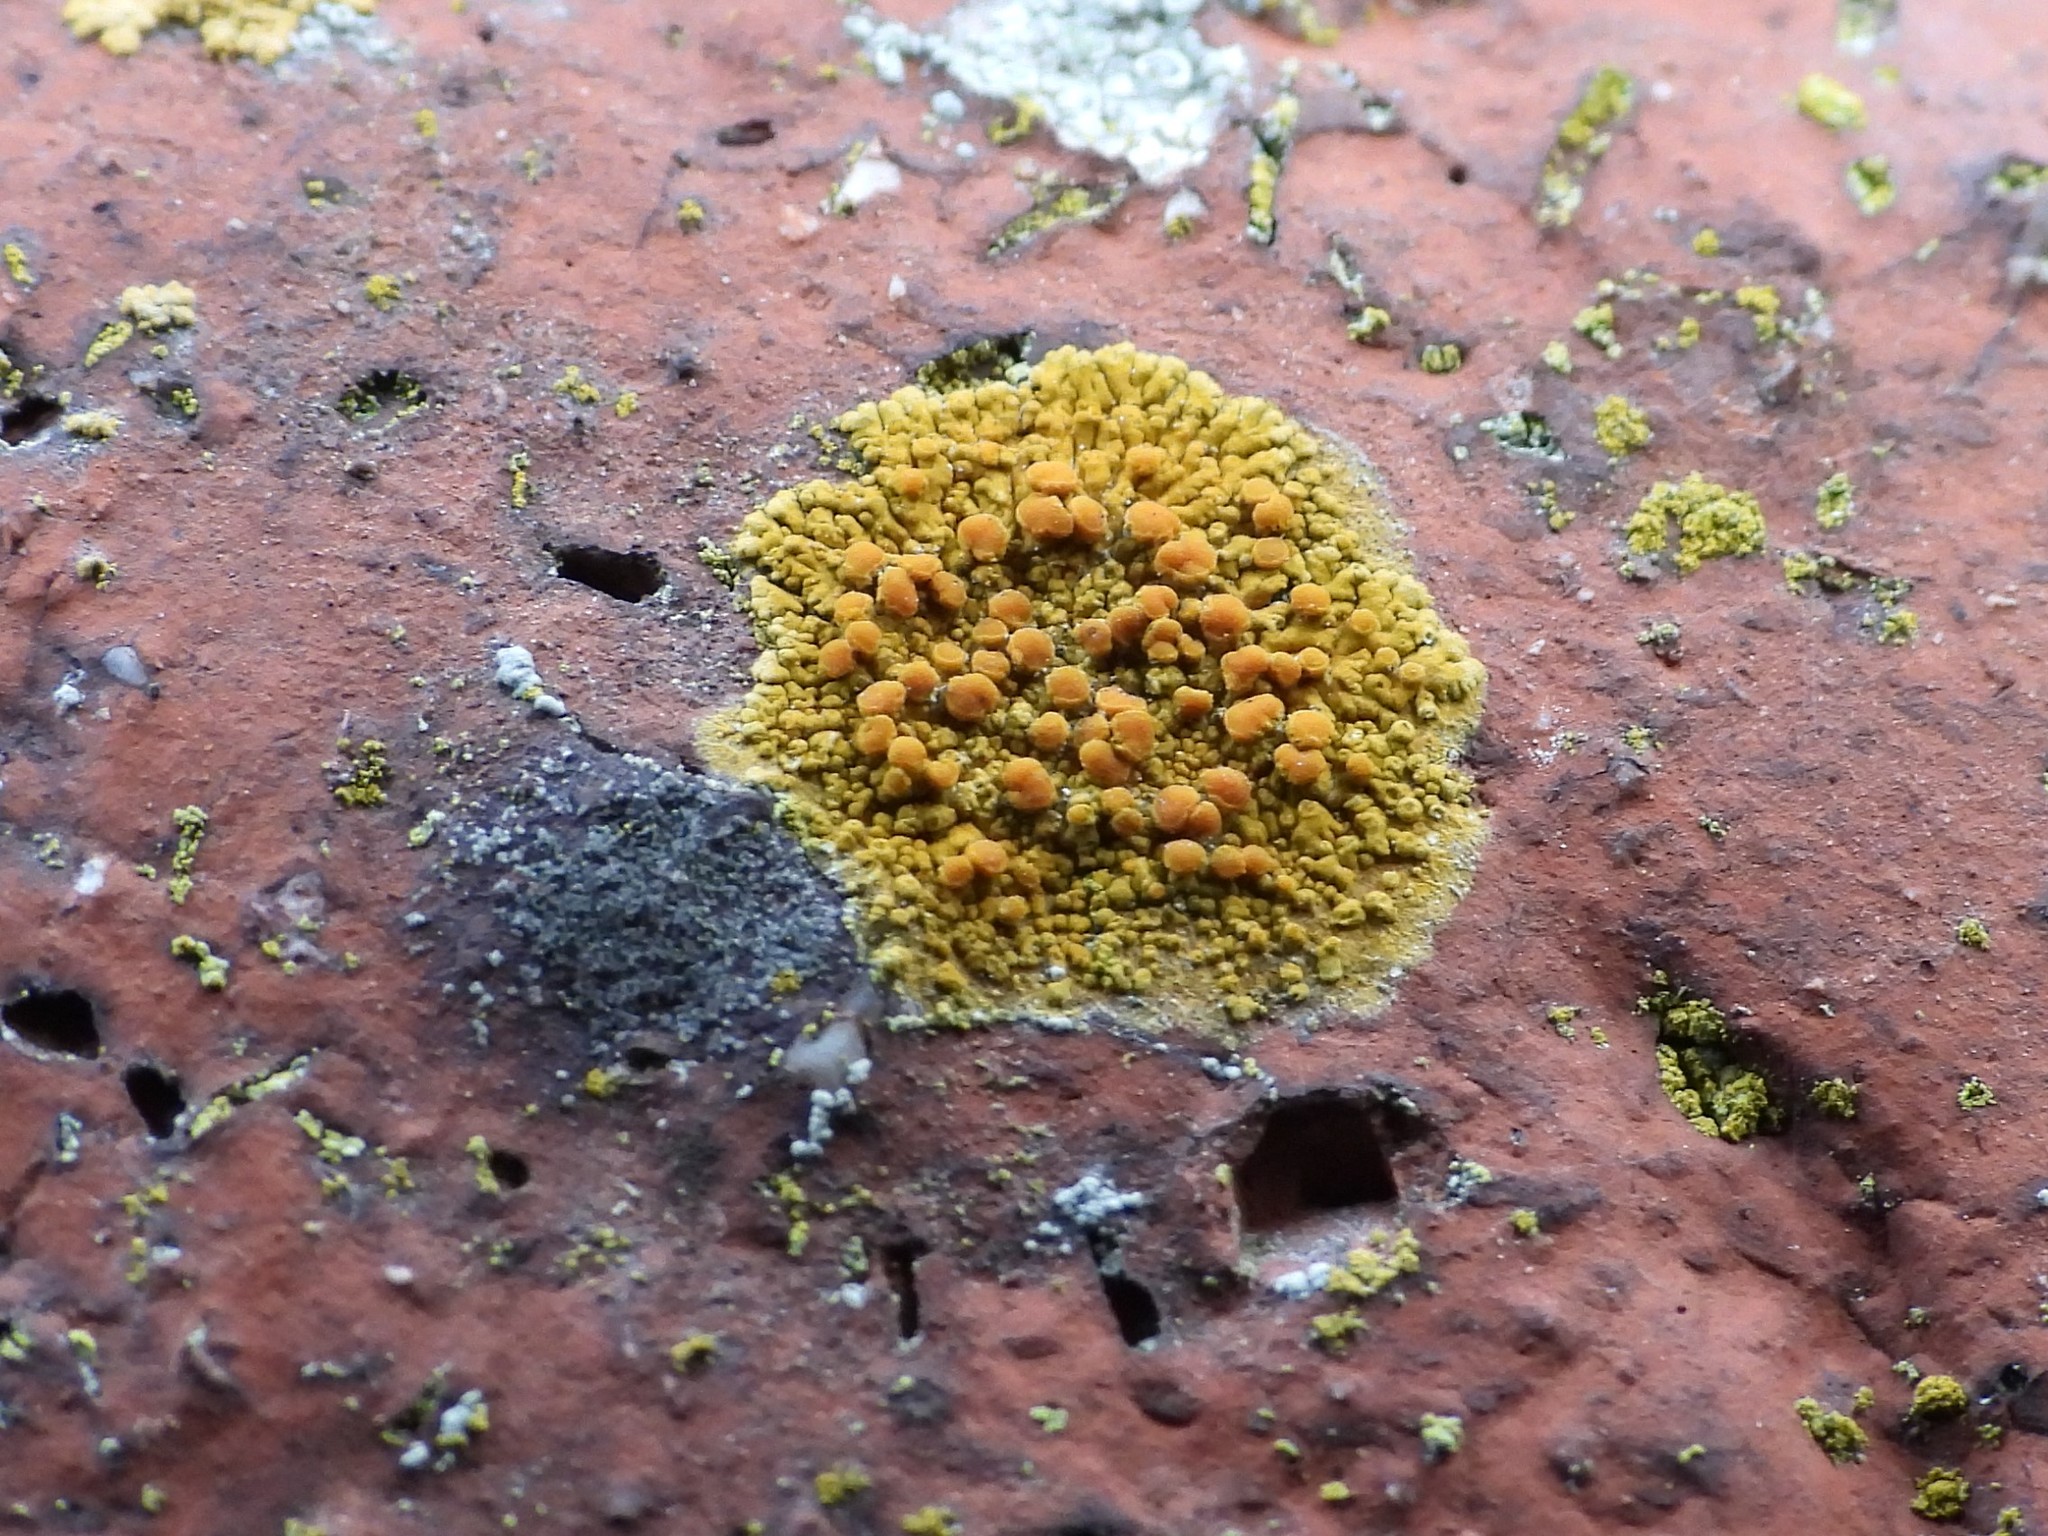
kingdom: Fungi
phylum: Ascomycota
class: Lecanoromycetes
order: Teloschistales
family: Teloschistaceae
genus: Calogaya
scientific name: Calogaya saxicola
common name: Rock jewel lichen
